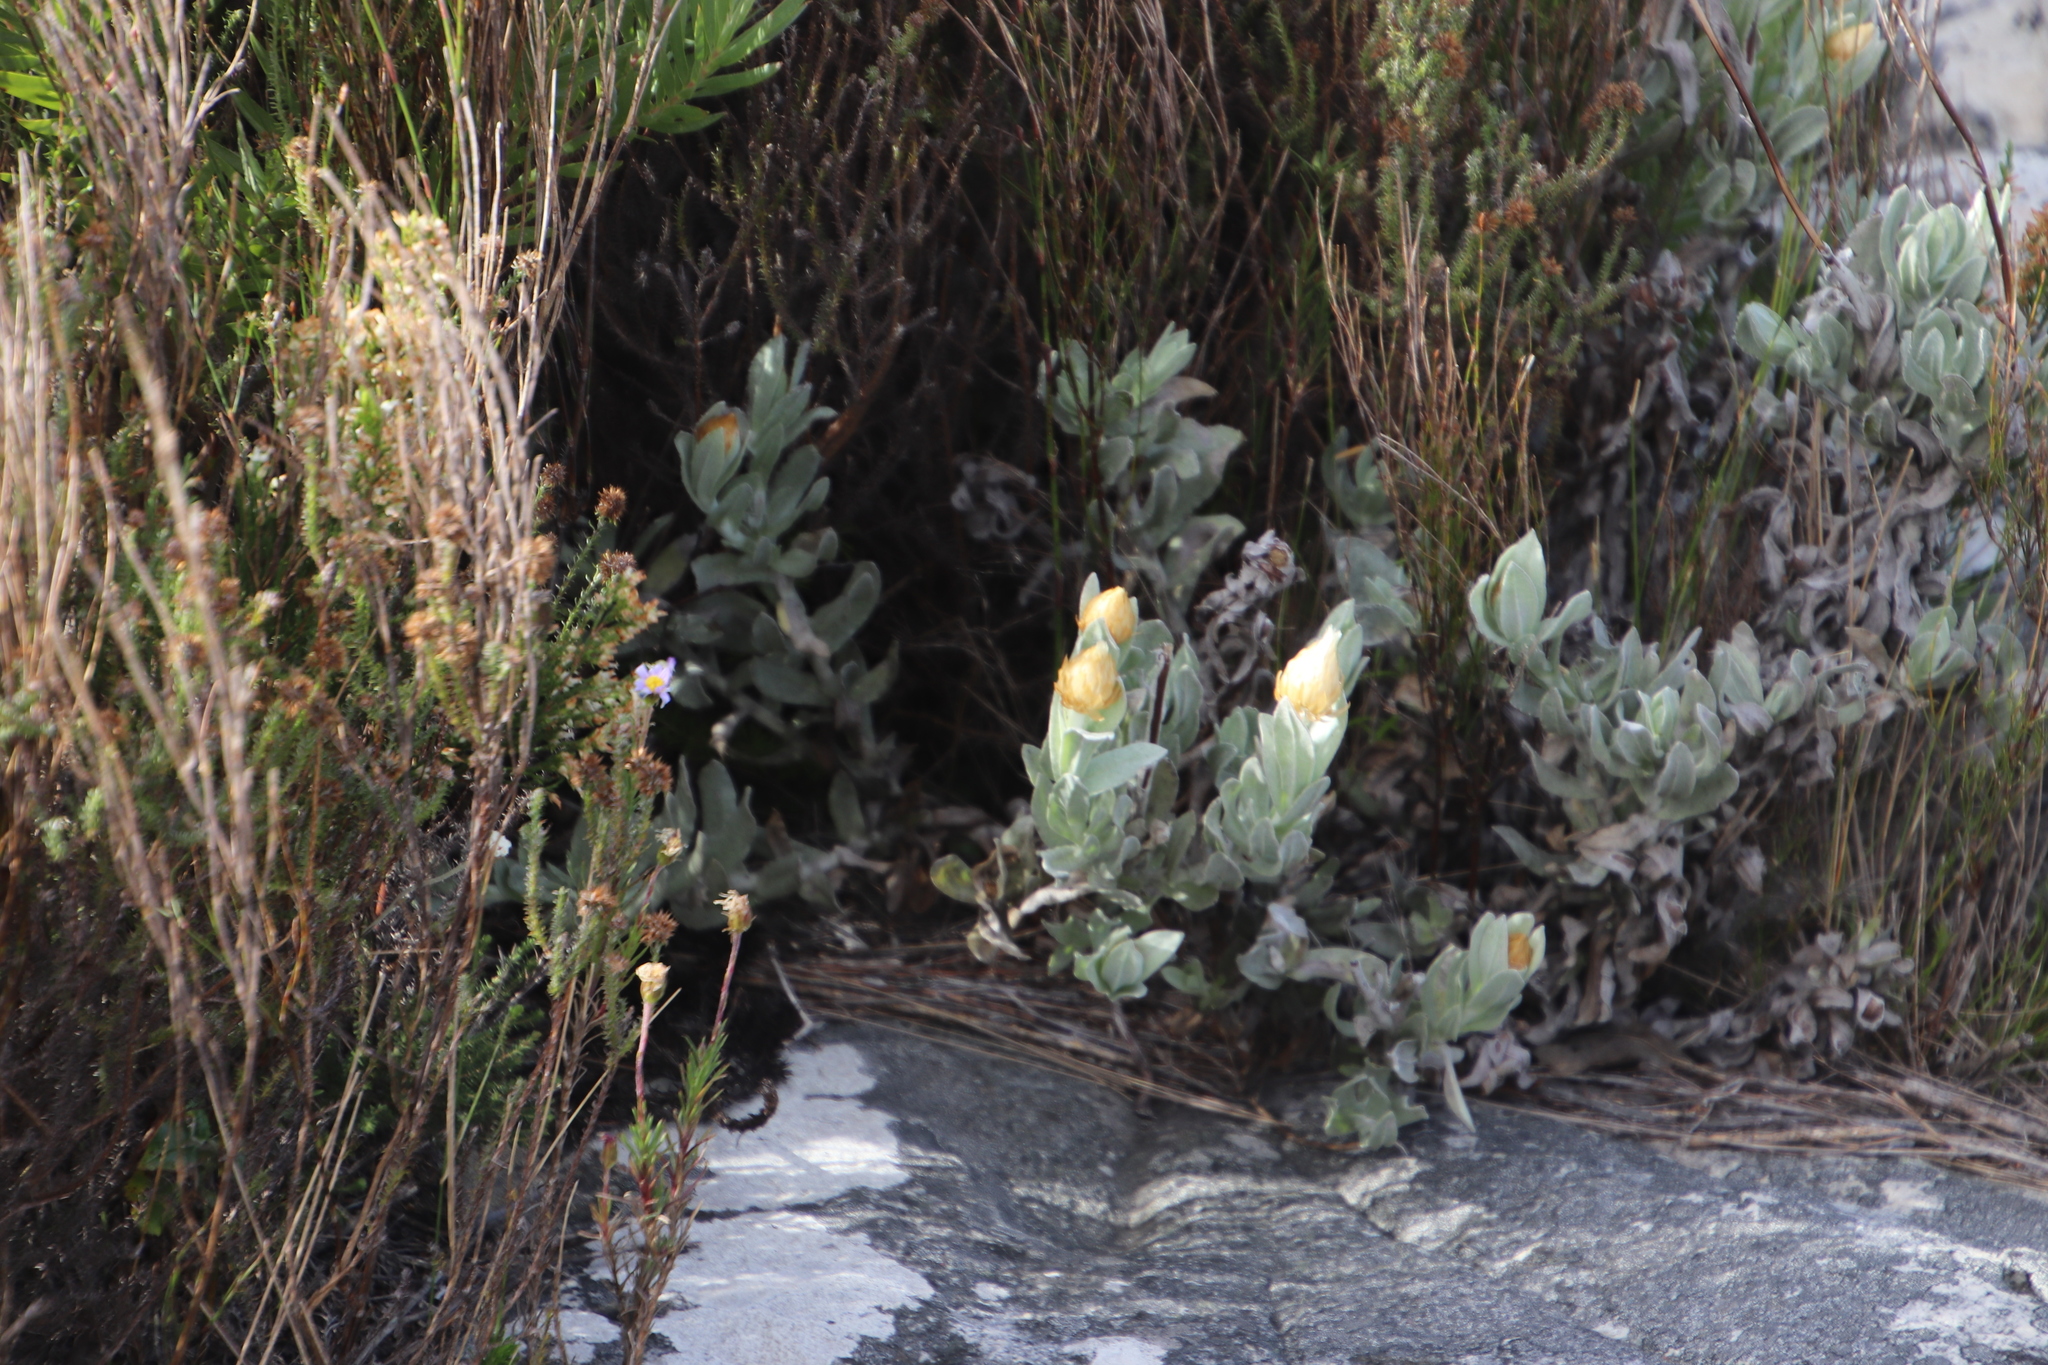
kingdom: Plantae
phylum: Tracheophyta
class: Magnoliopsida
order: Asterales
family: Asteraceae
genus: Syncarpha
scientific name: Syncarpha speciosissima
